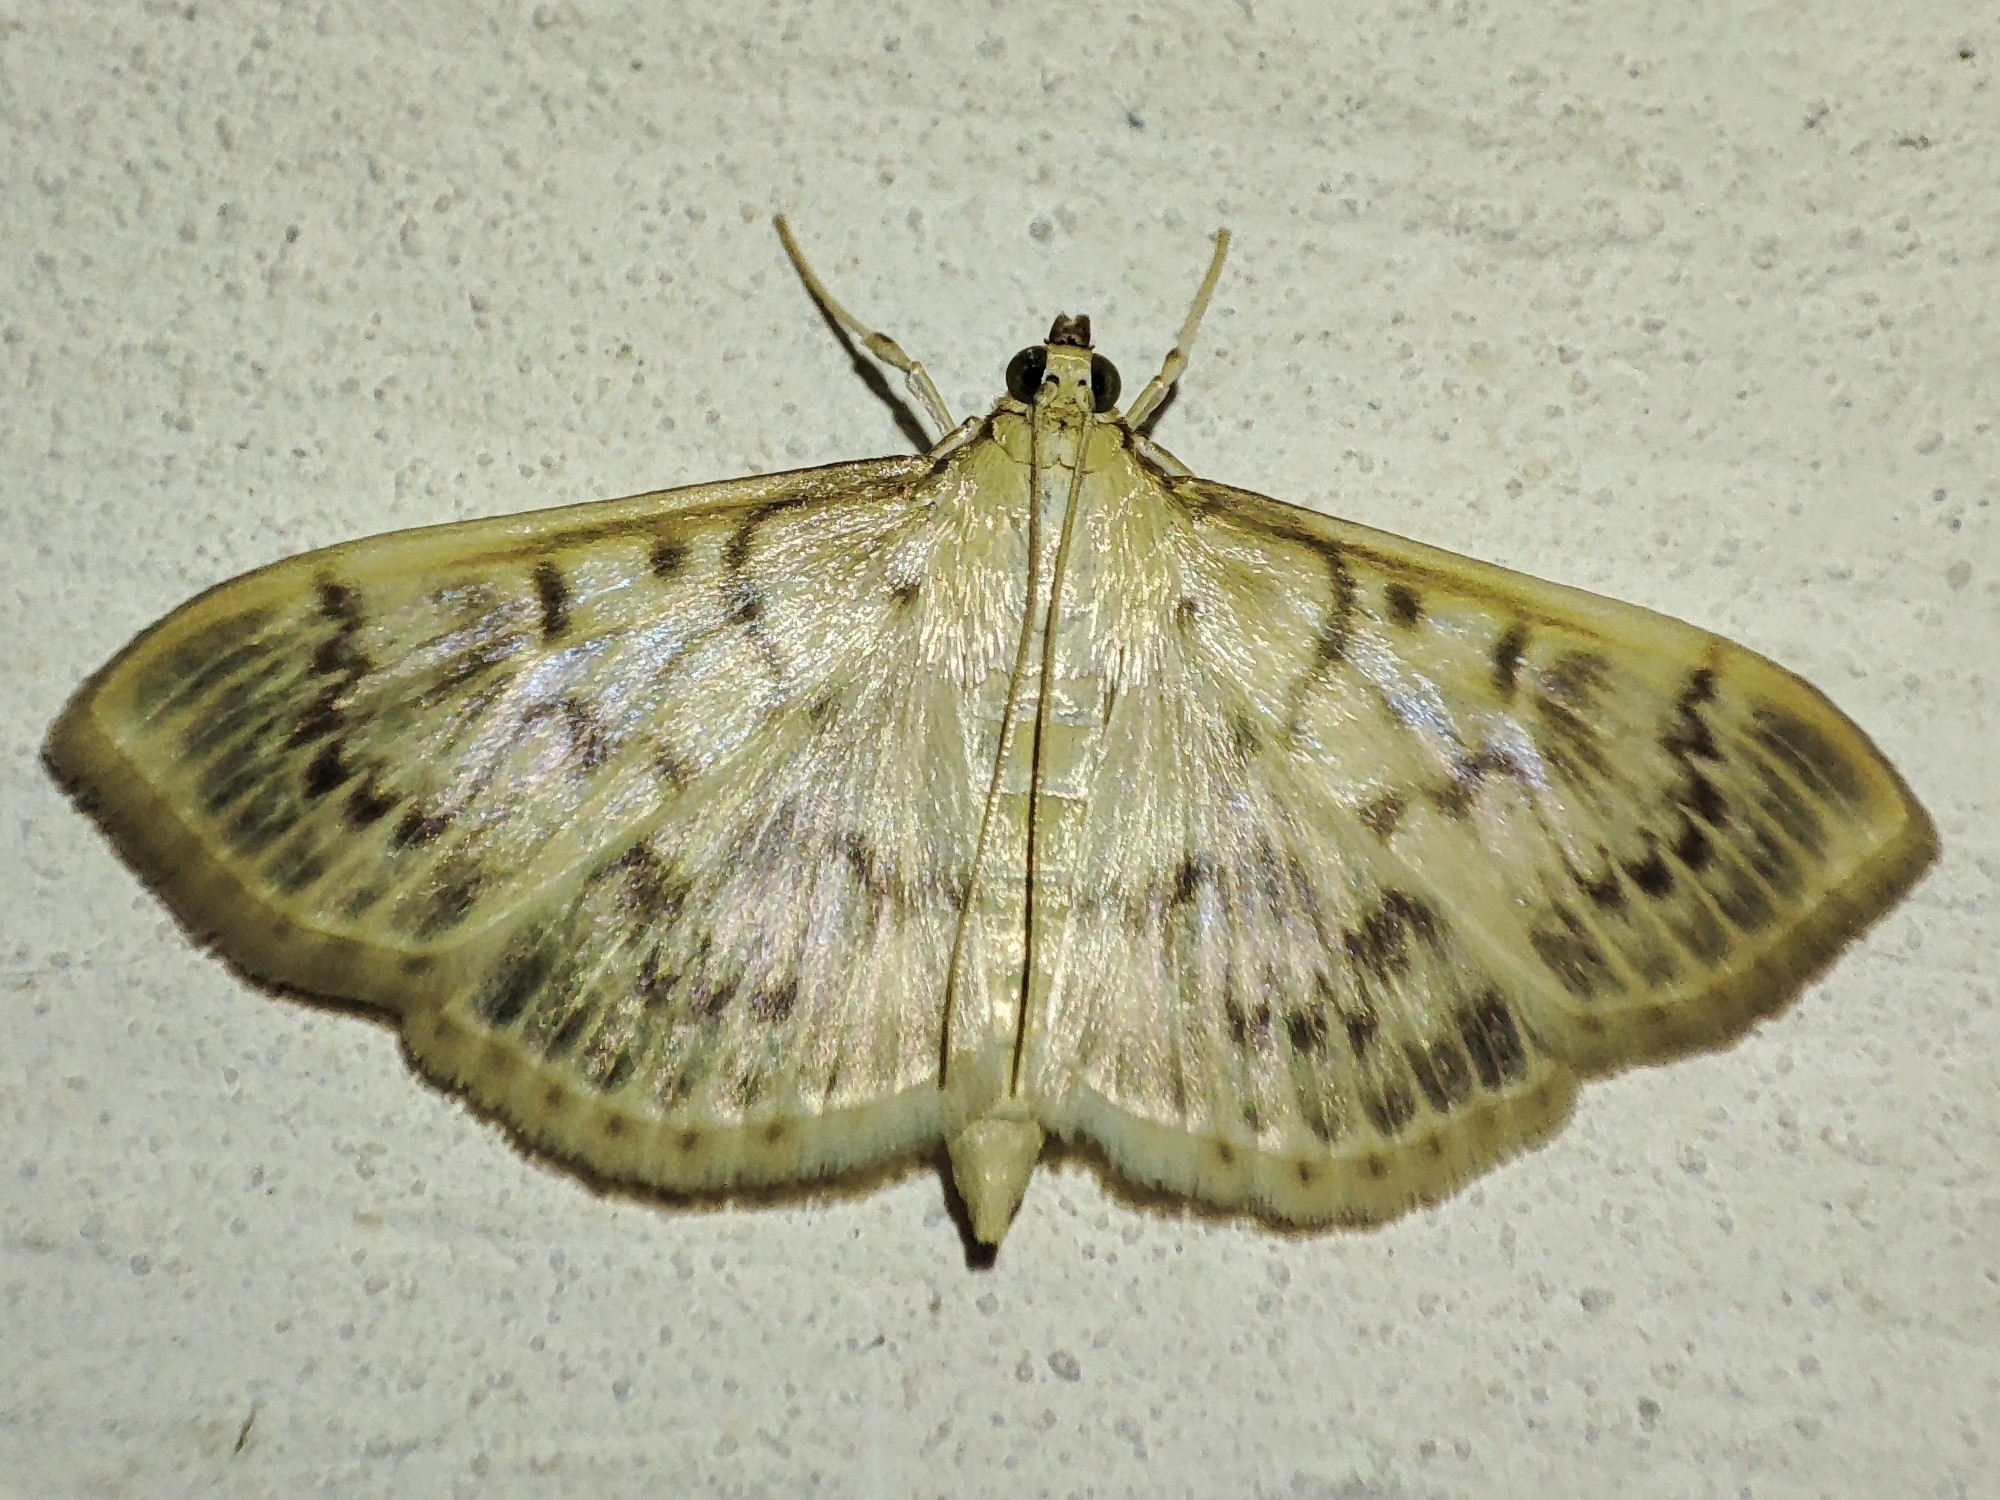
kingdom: Animalia
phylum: Arthropoda
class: Insecta
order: Lepidoptera
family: Crambidae
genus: Patania
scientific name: Patania ruralis
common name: Mother of pearl
